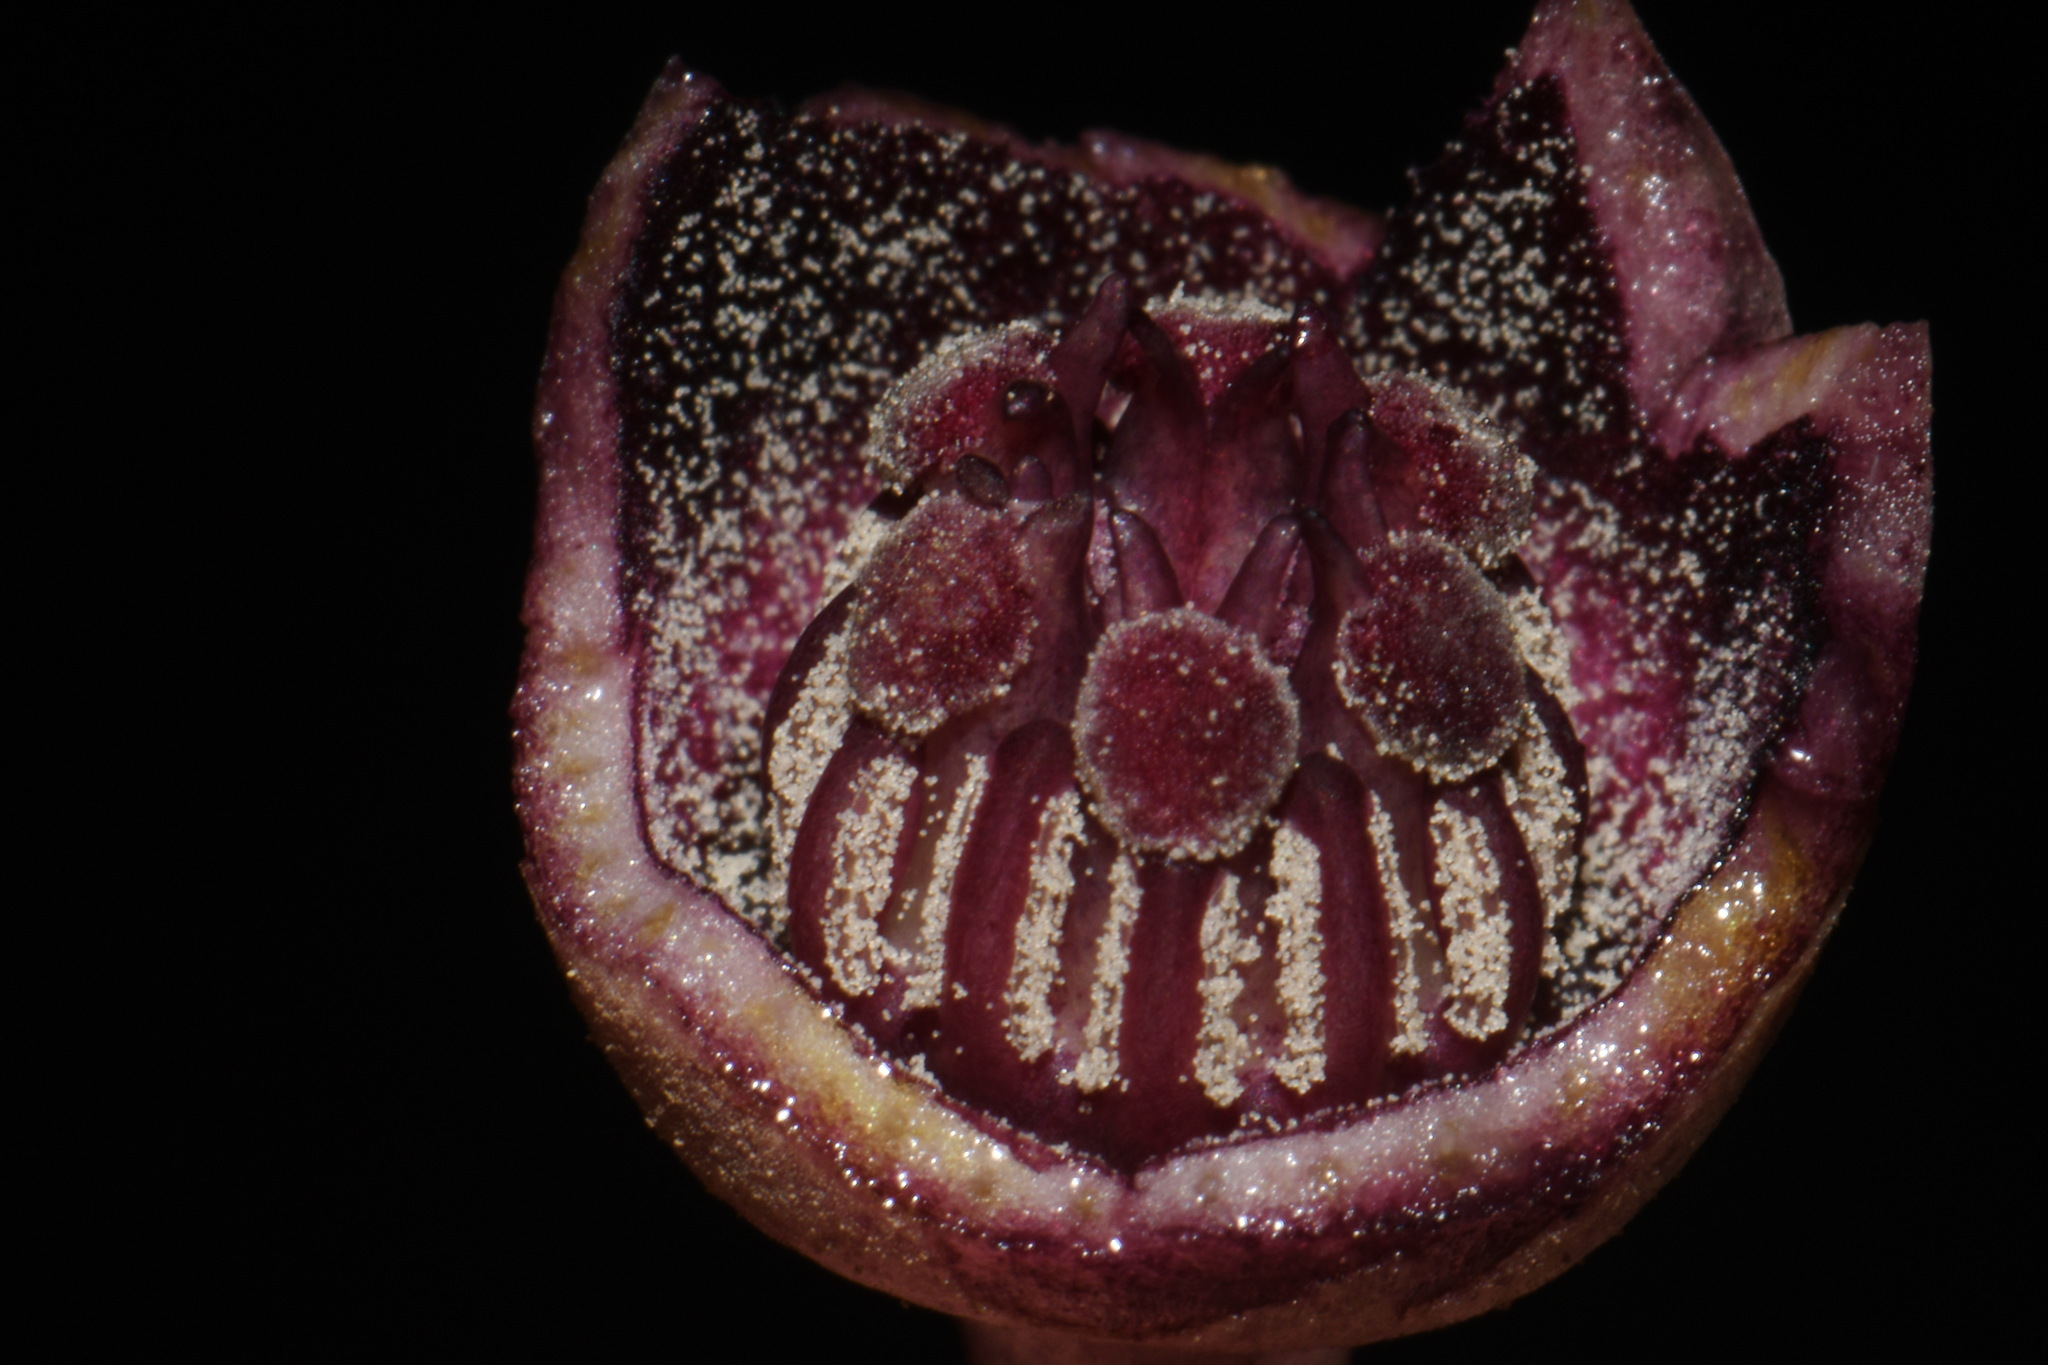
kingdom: Plantae
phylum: Tracheophyta
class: Magnoliopsida
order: Piperales
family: Aristolochiaceae
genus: Hexastylis
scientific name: Hexastylis arifolia
